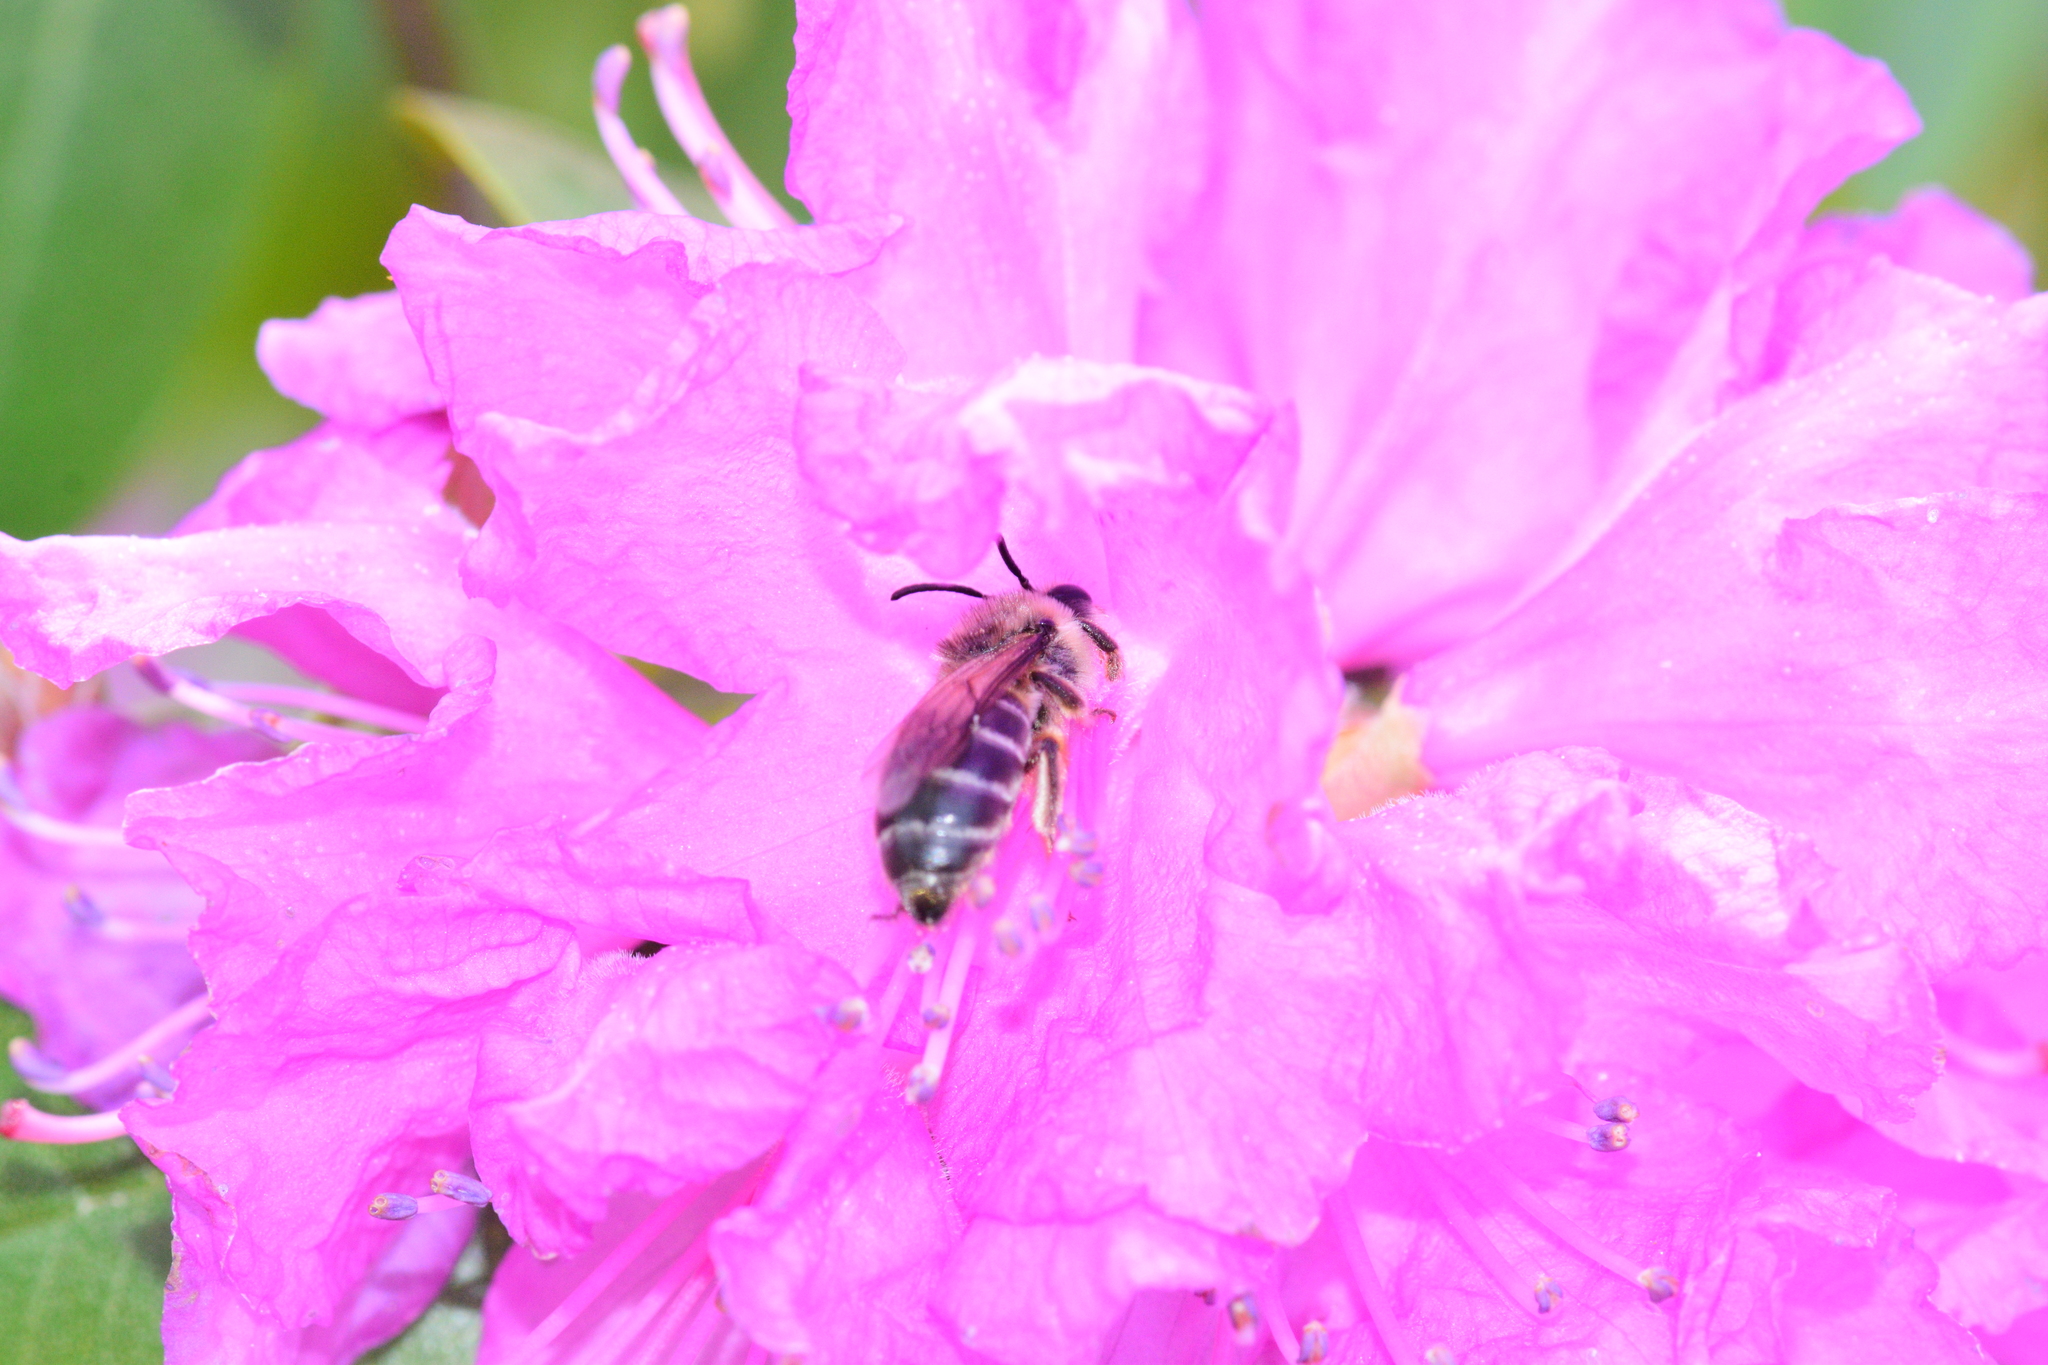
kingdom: Animalia
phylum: Arthropoda
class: Insecta
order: Hymenoptera
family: Colletidae
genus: Colletes
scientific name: Colletes inaequalis
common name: Unequal cellophane bee
